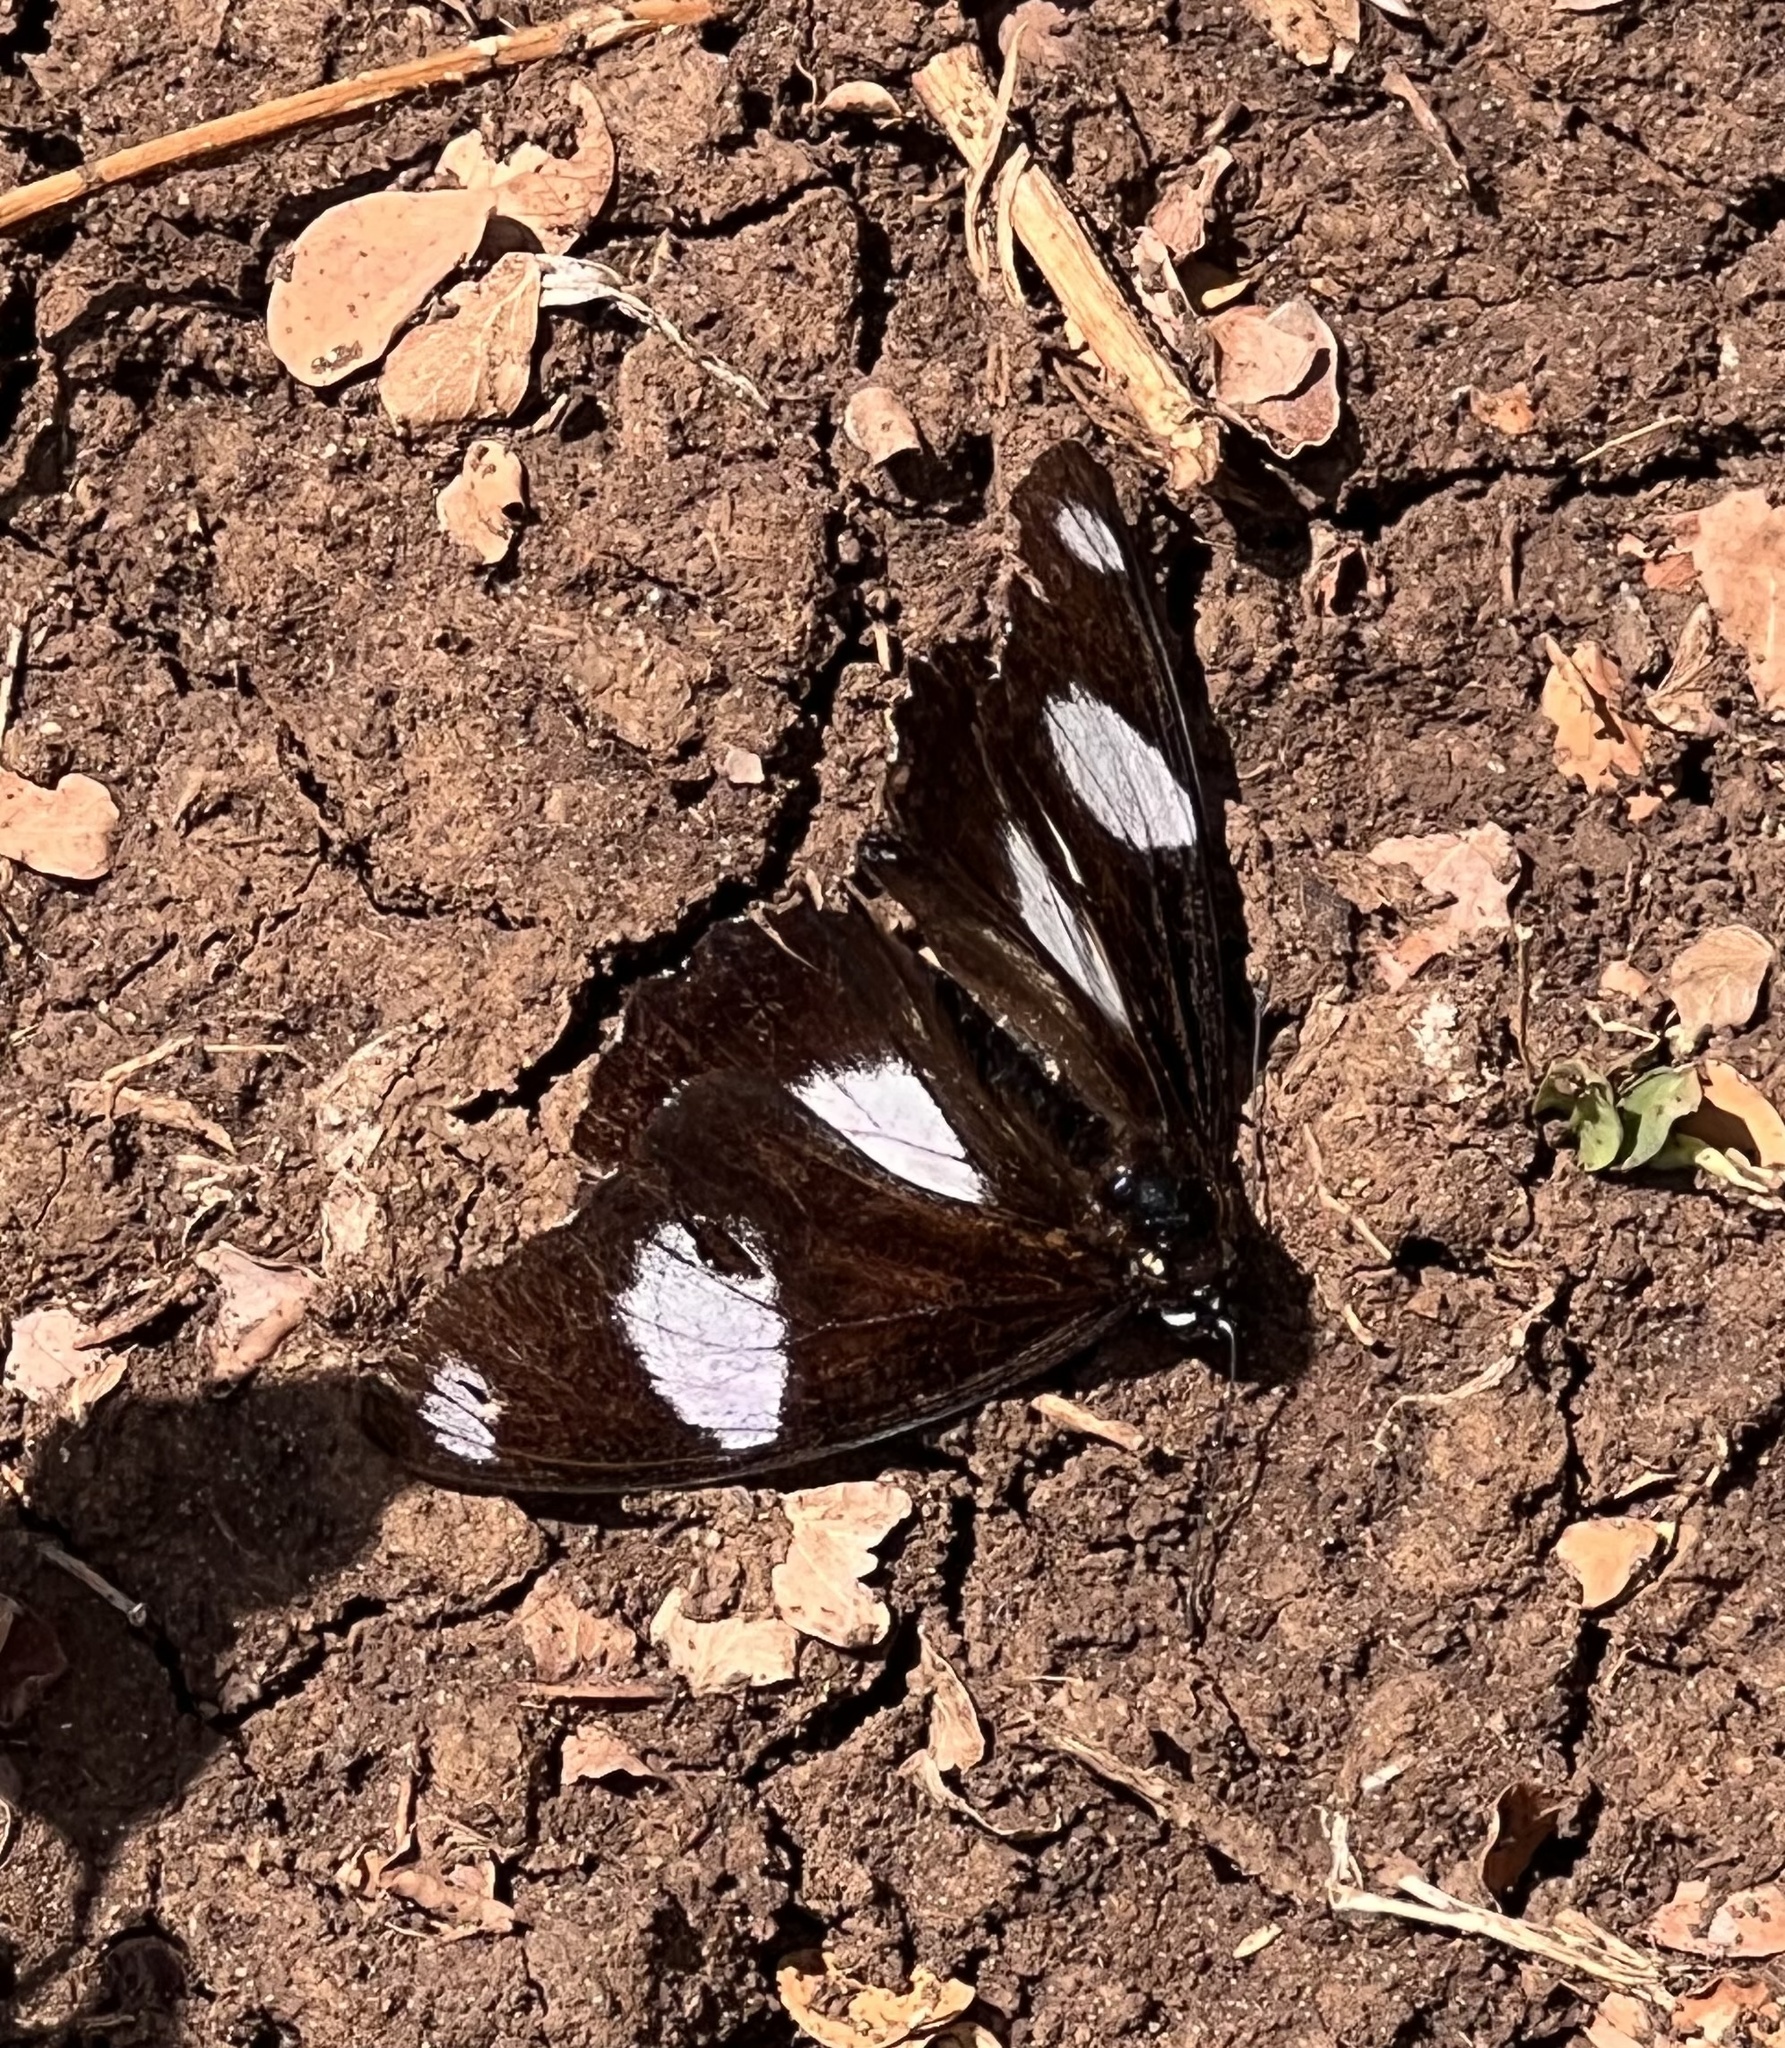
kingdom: Animalia
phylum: Arthropoda
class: Insecta
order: Lepidoptera
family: Nymphalidae
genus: Hypolimnas
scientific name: Hypolimnas misippus
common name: False plain tiger
